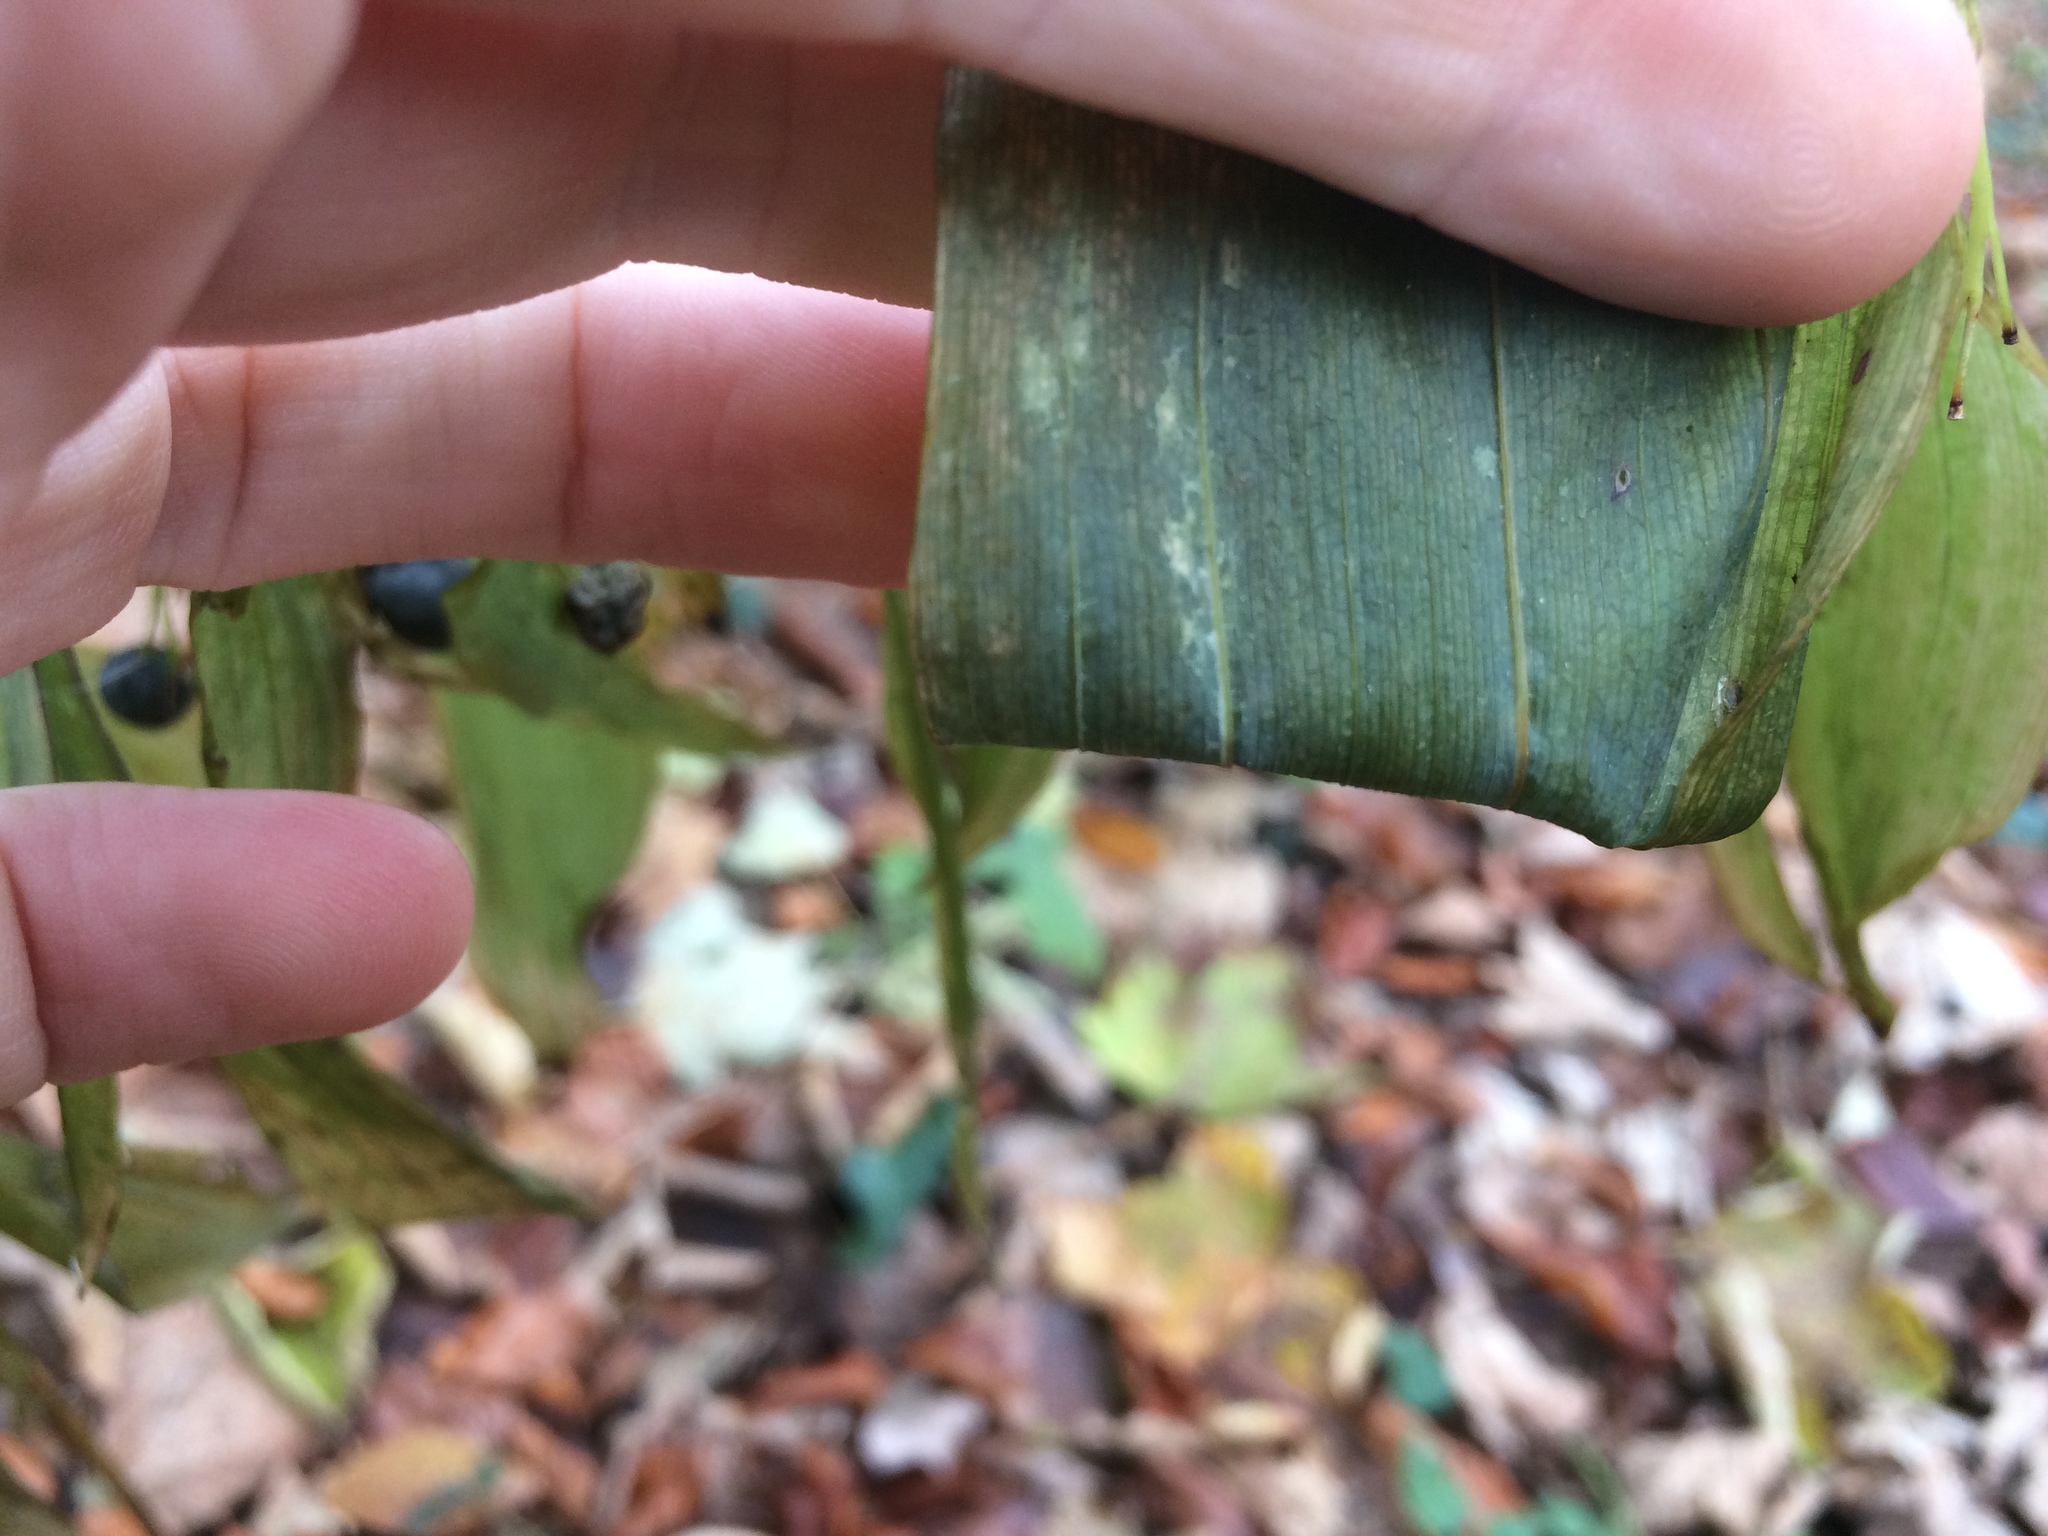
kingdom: Plantae
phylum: Tracheophyta
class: Liliopsida
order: Asparagales
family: Asparagaceae
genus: Polygonatum
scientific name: Polygonatum multiflorum
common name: Solomon's-seal
